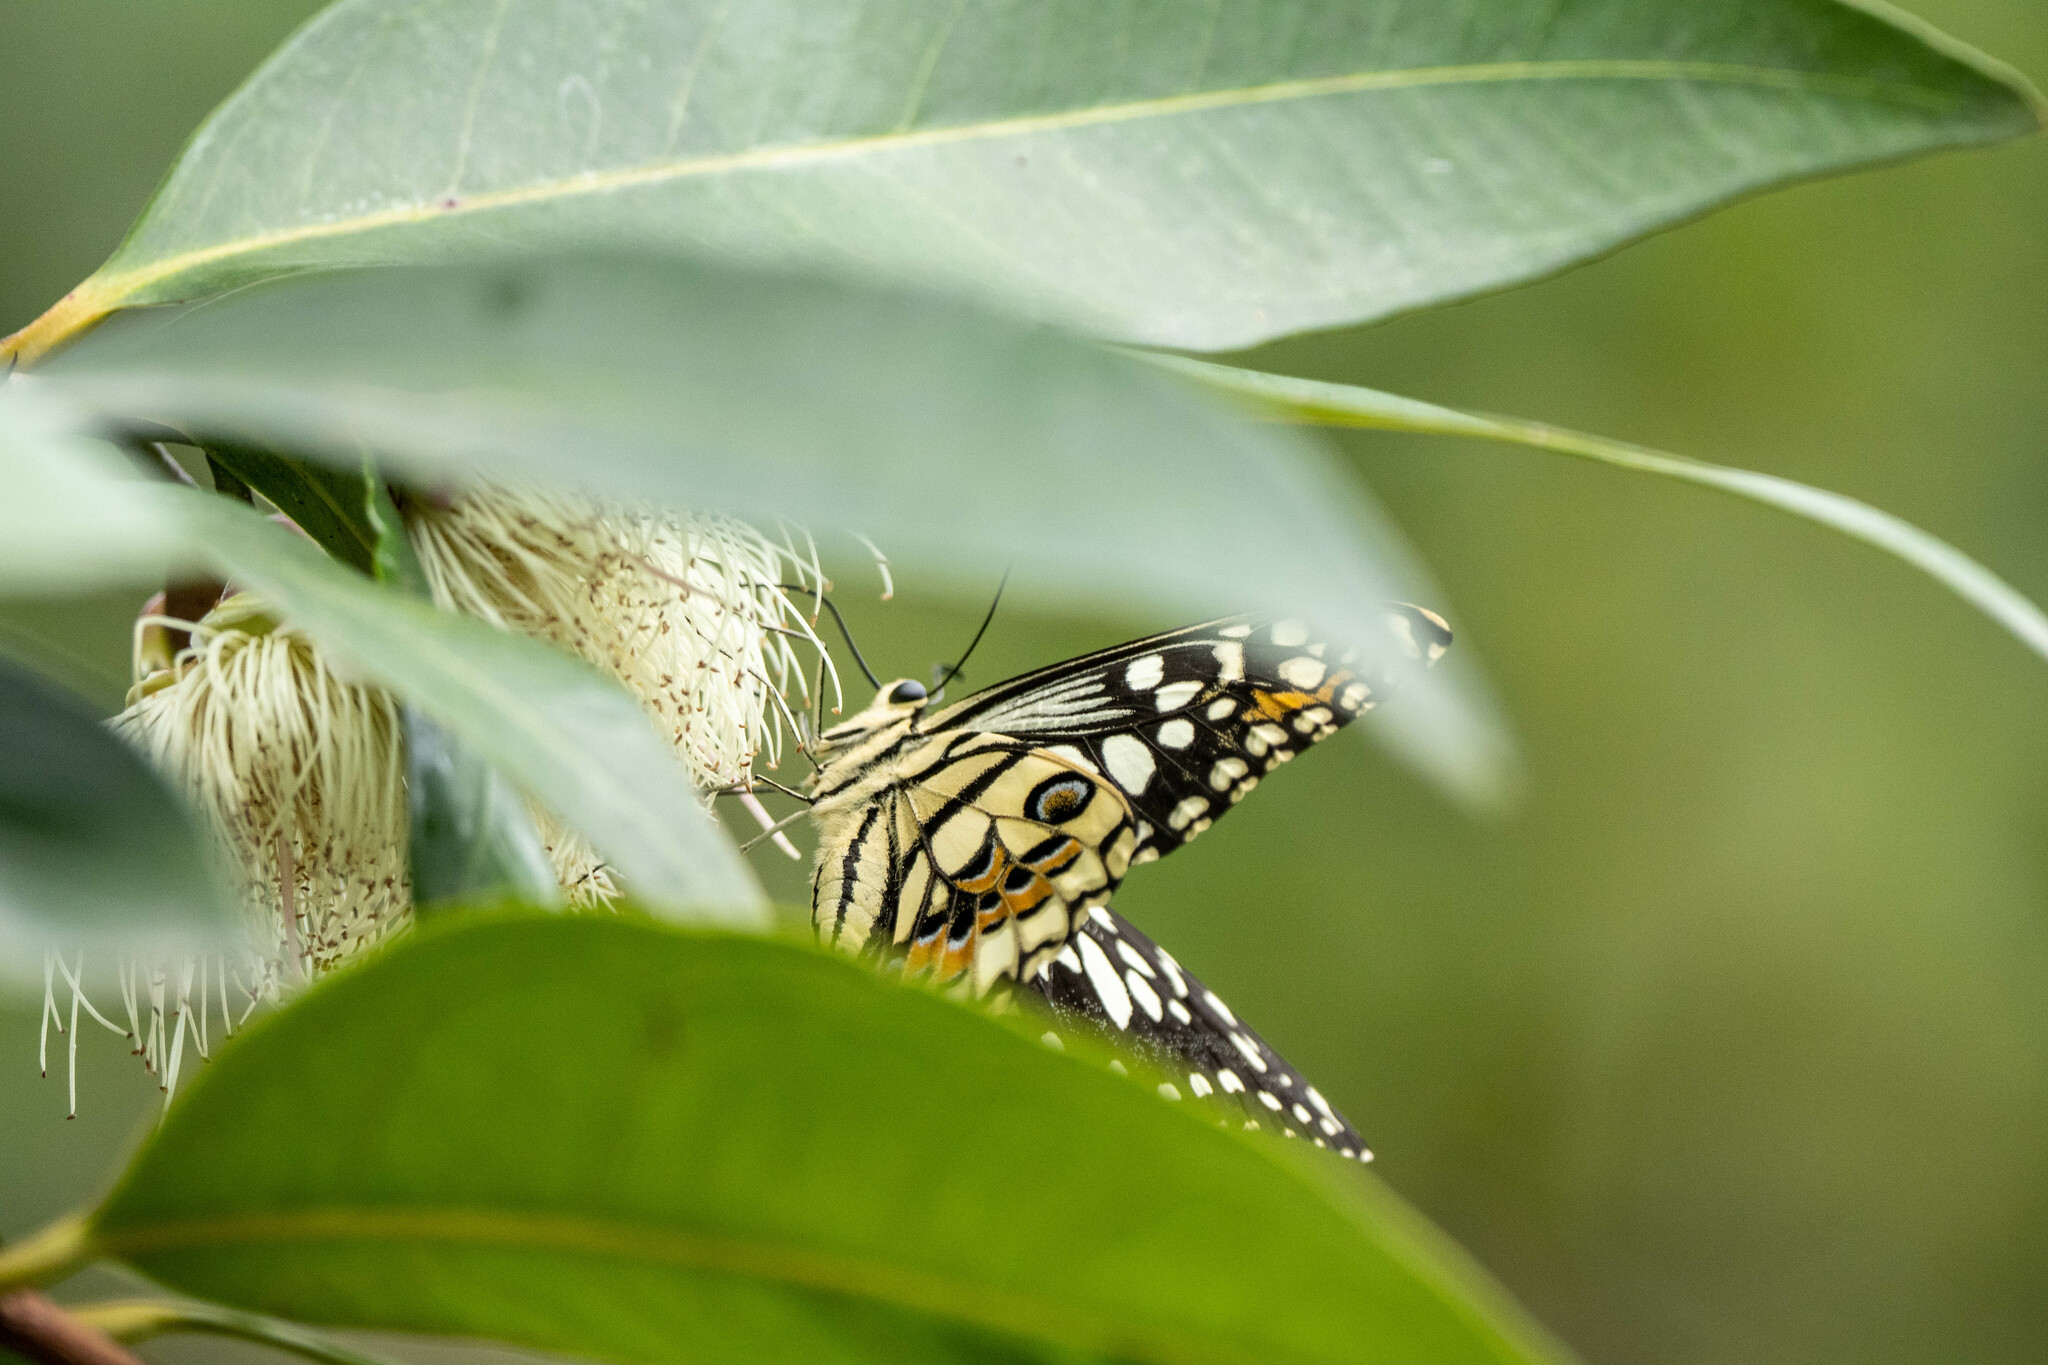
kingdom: Animalia
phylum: Arthropoda
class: Insecta
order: Lepidoptera
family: Papilionidae
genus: Papilio
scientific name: Papilio demoleus
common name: Lime butterfly
